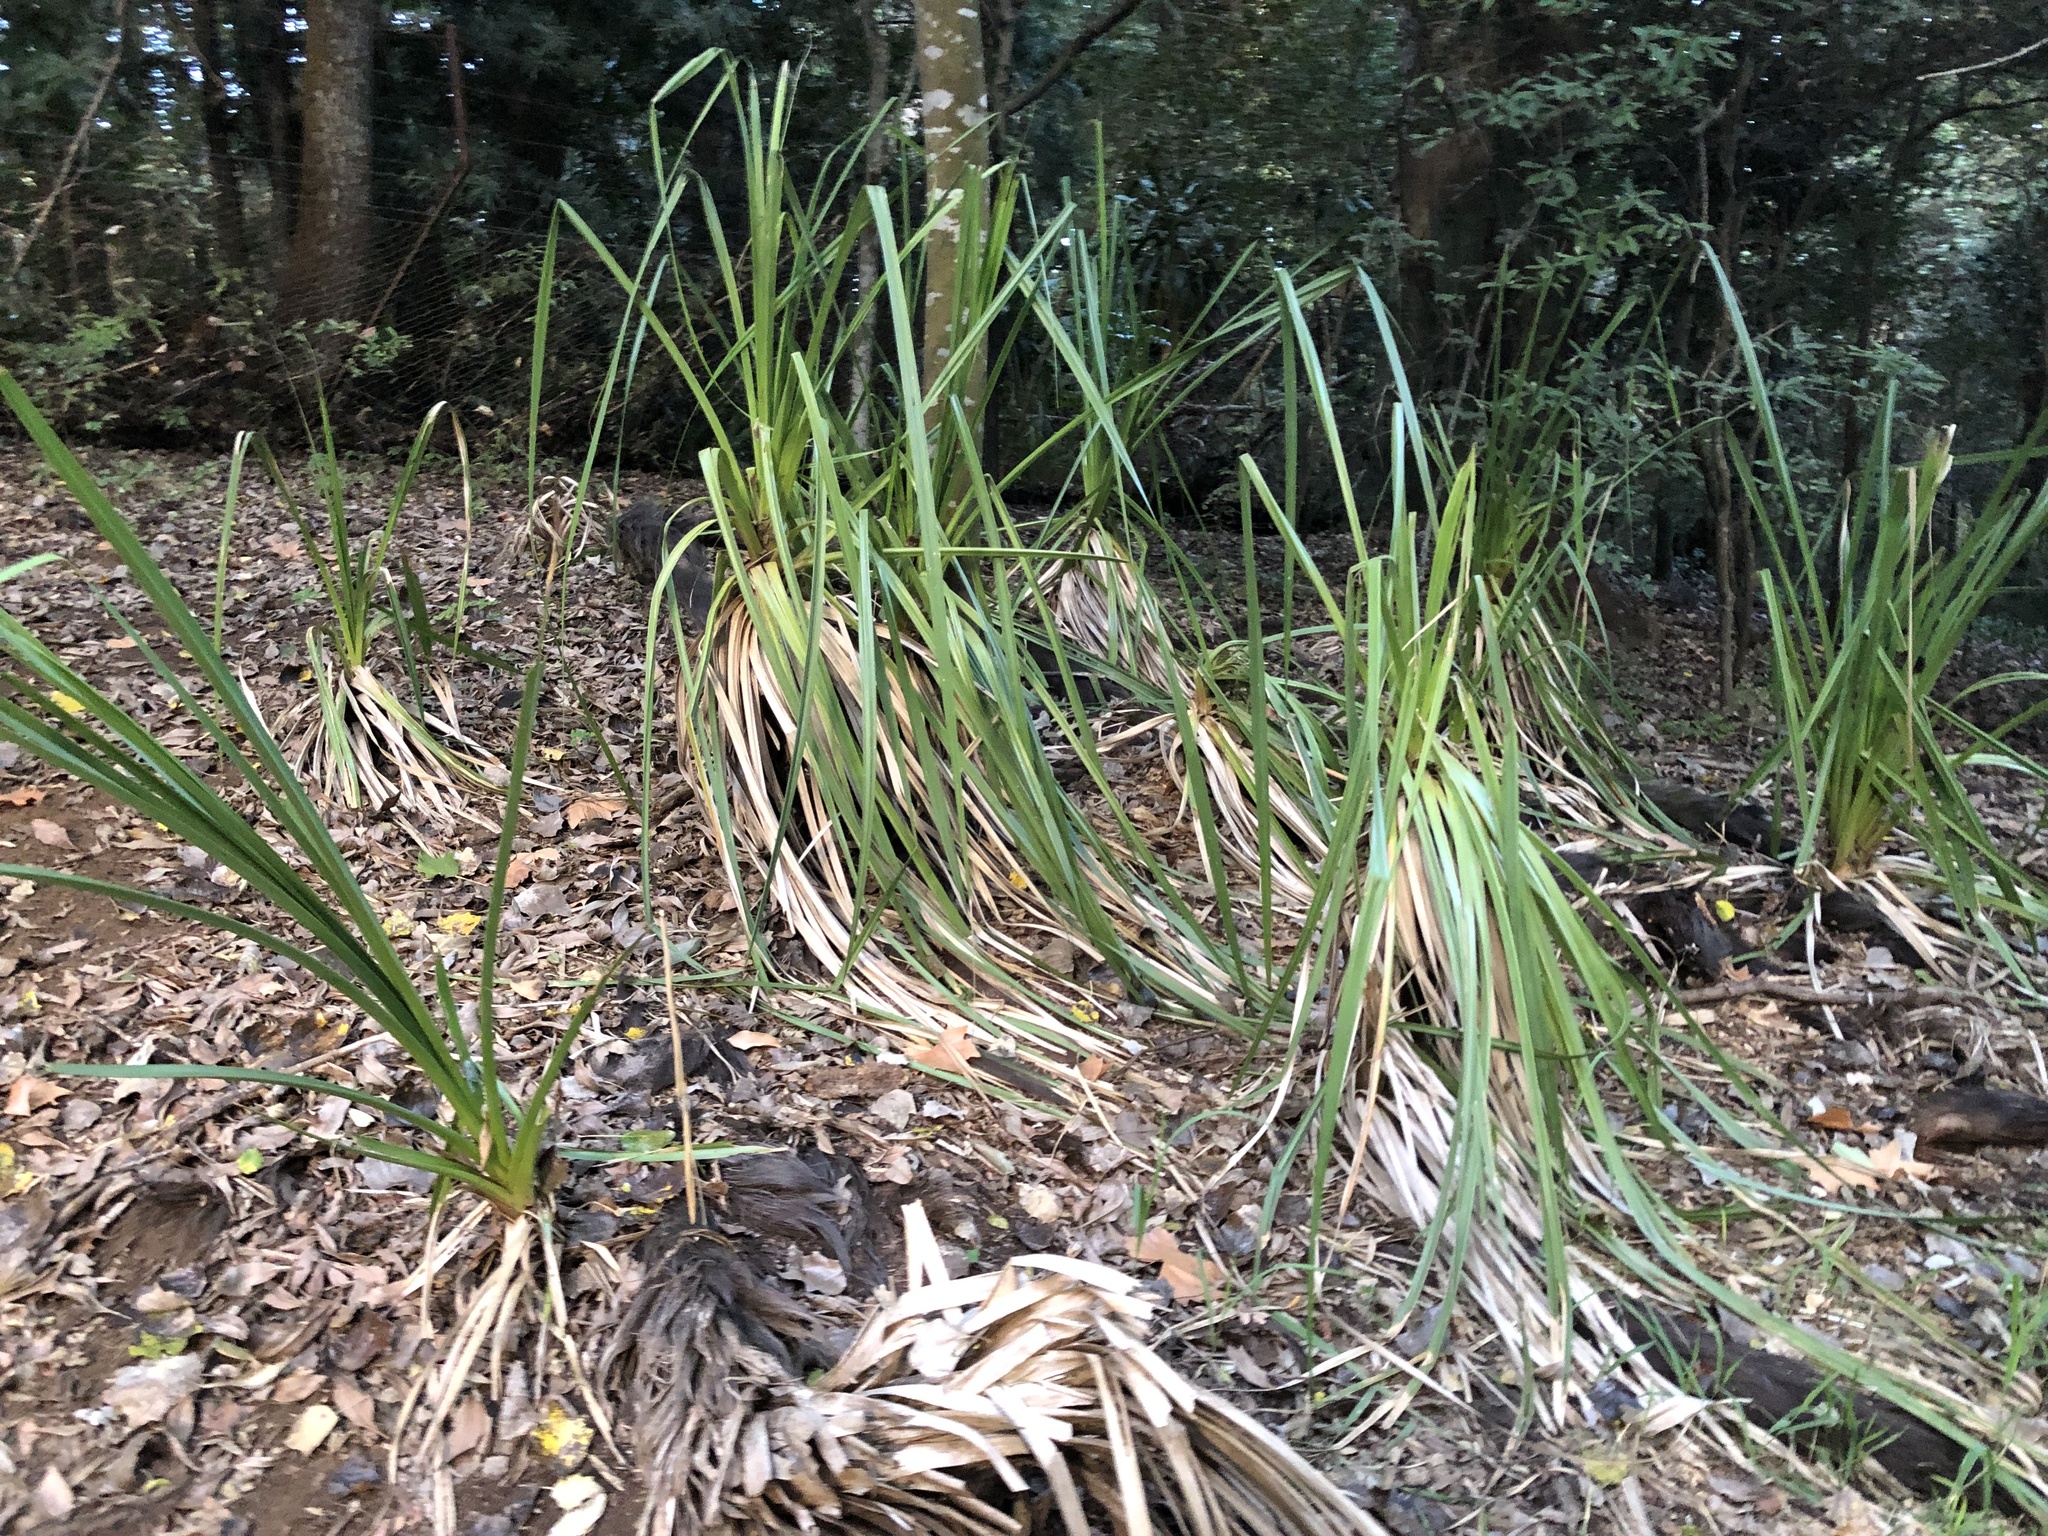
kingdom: Plantae
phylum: Tracheophyta
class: Liliopsida
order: Poales
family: Thurniaceae
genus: Prionium
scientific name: Prionium serratum
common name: Palmiet
